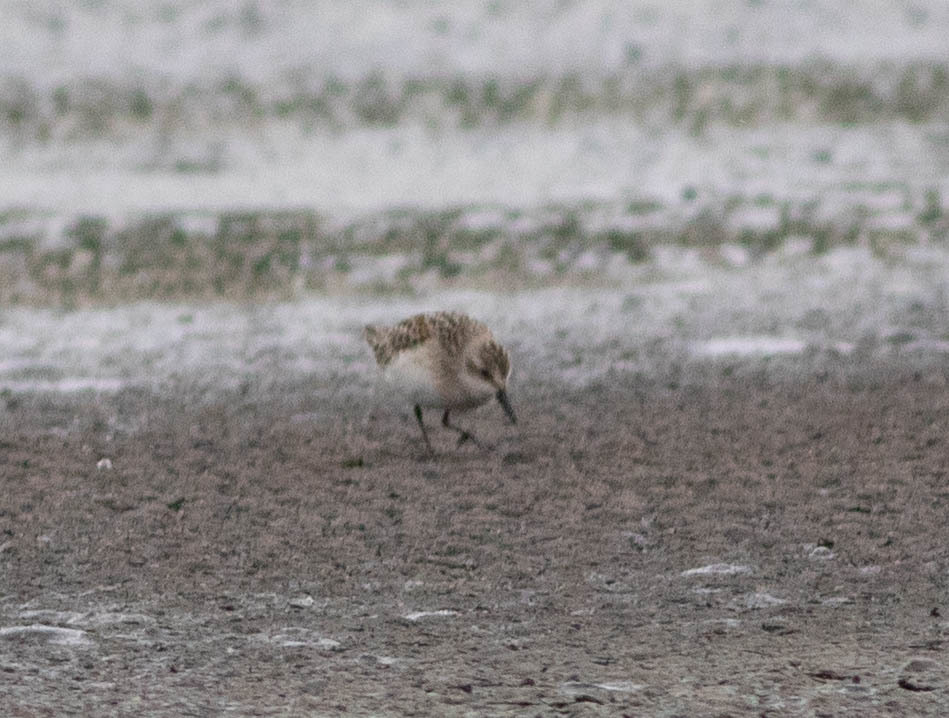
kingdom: Animalia
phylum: Chordata
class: Aves
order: Charadriiformes
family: Scolopacidae
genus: Calidris
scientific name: Calidris pusilla
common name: Semipalmated sandpiper
